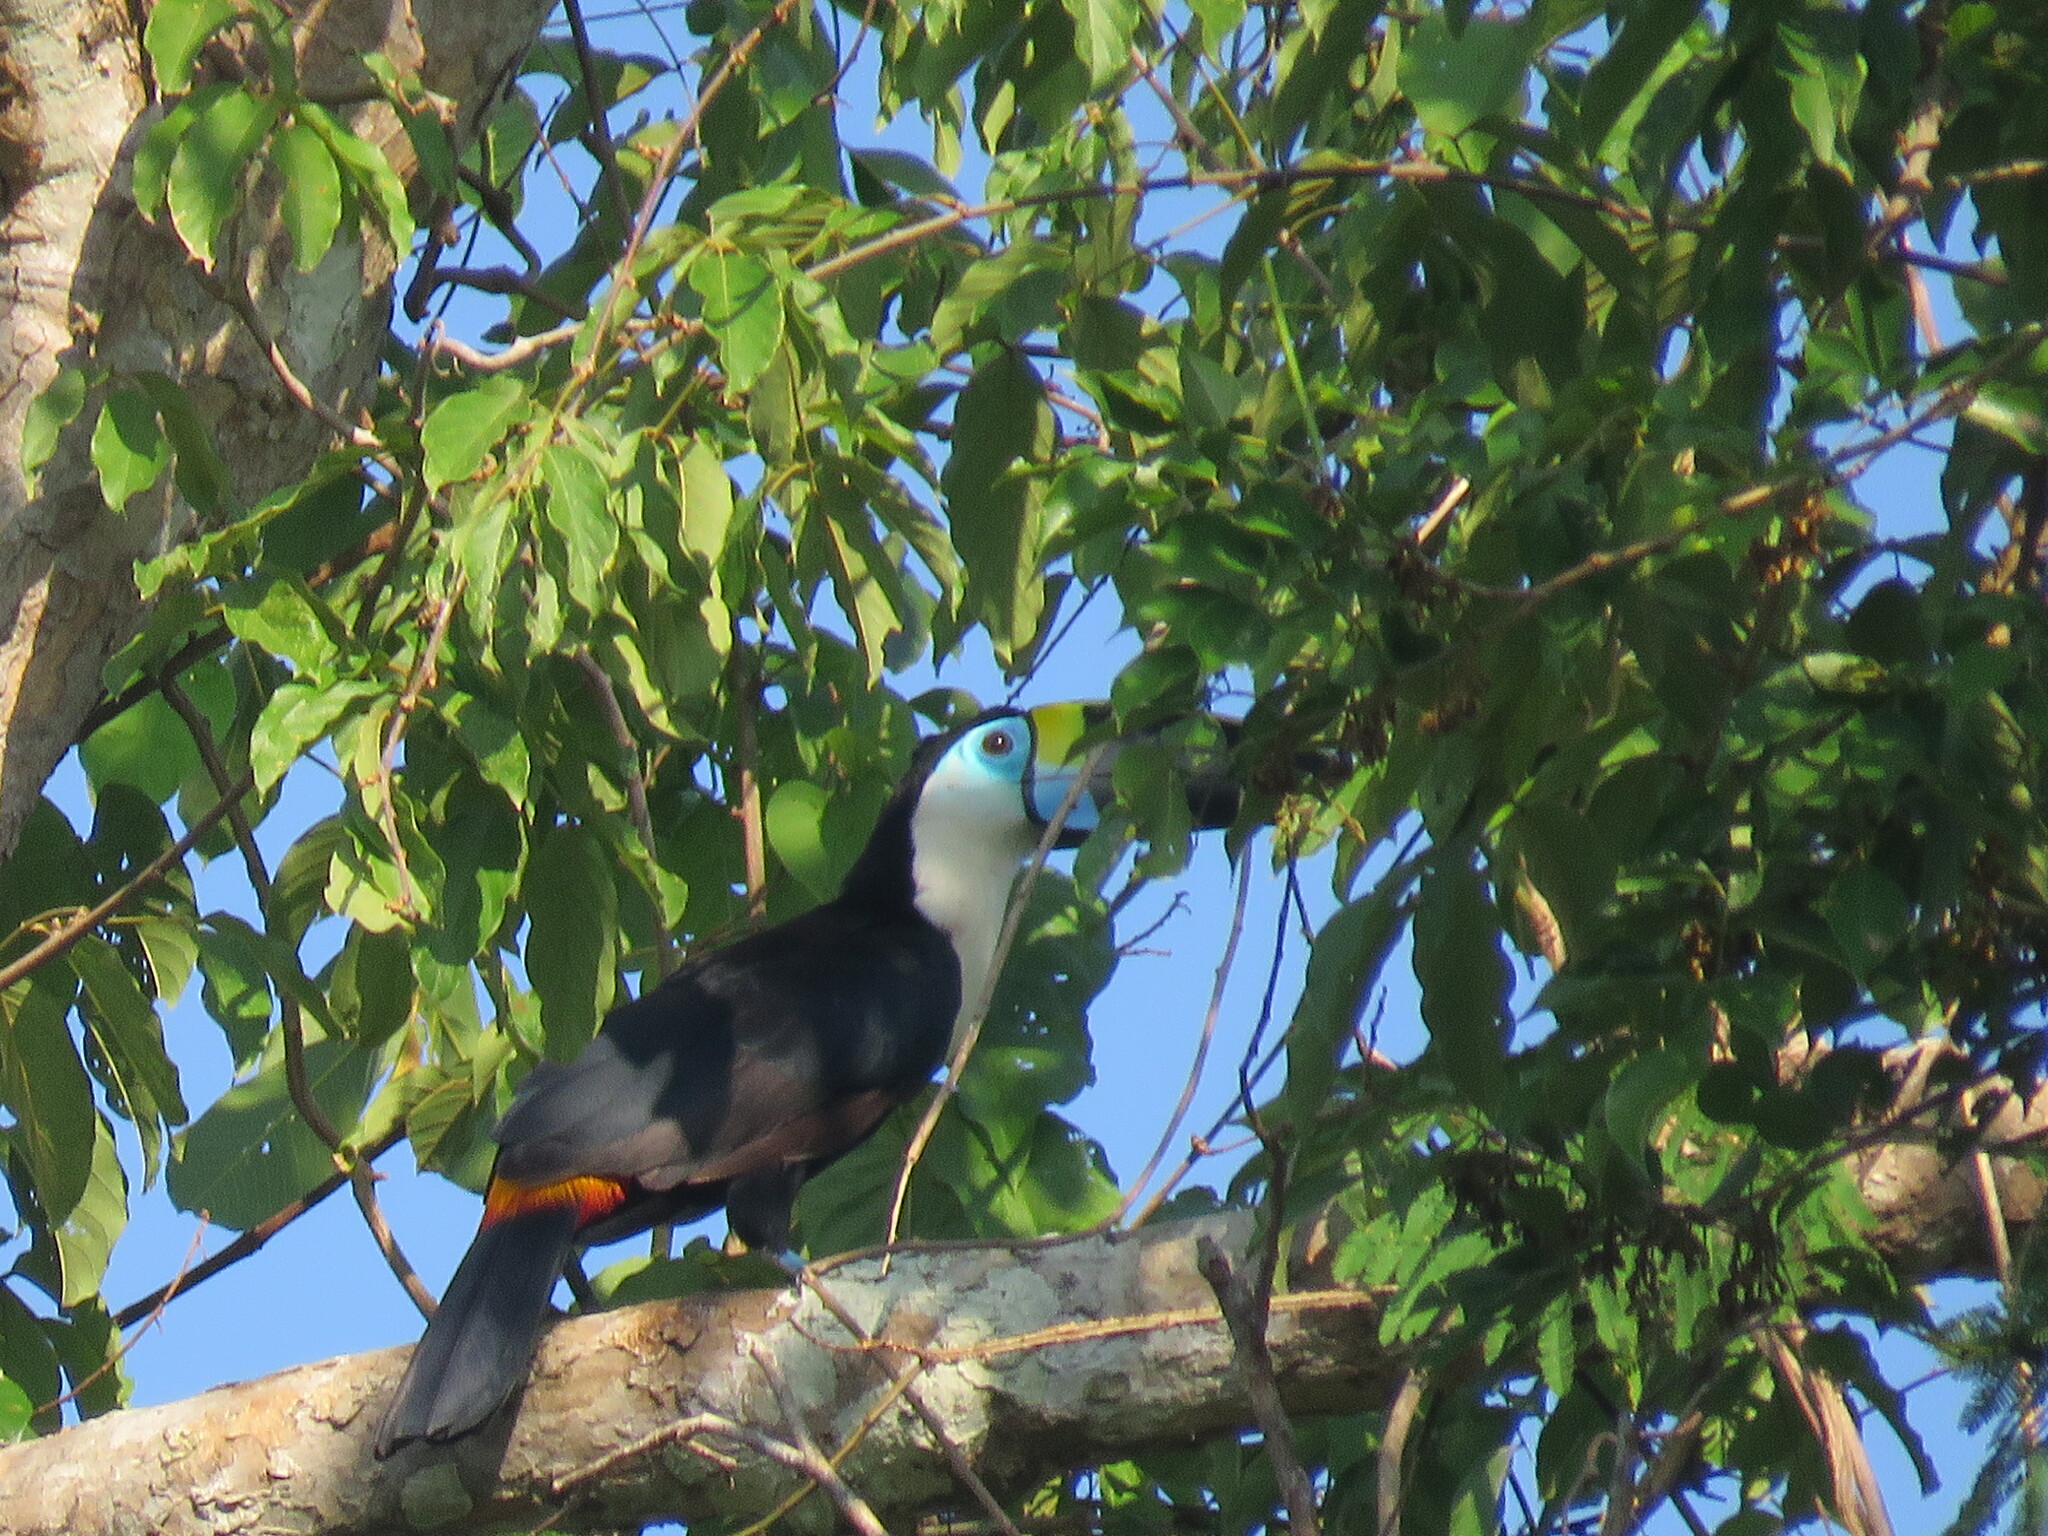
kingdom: Animalia
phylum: Chordata
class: Aves
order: Piciformes
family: Ramphastidae
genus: Ramphastos
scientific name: Ramphastos tucanus
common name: White-throated toucan
